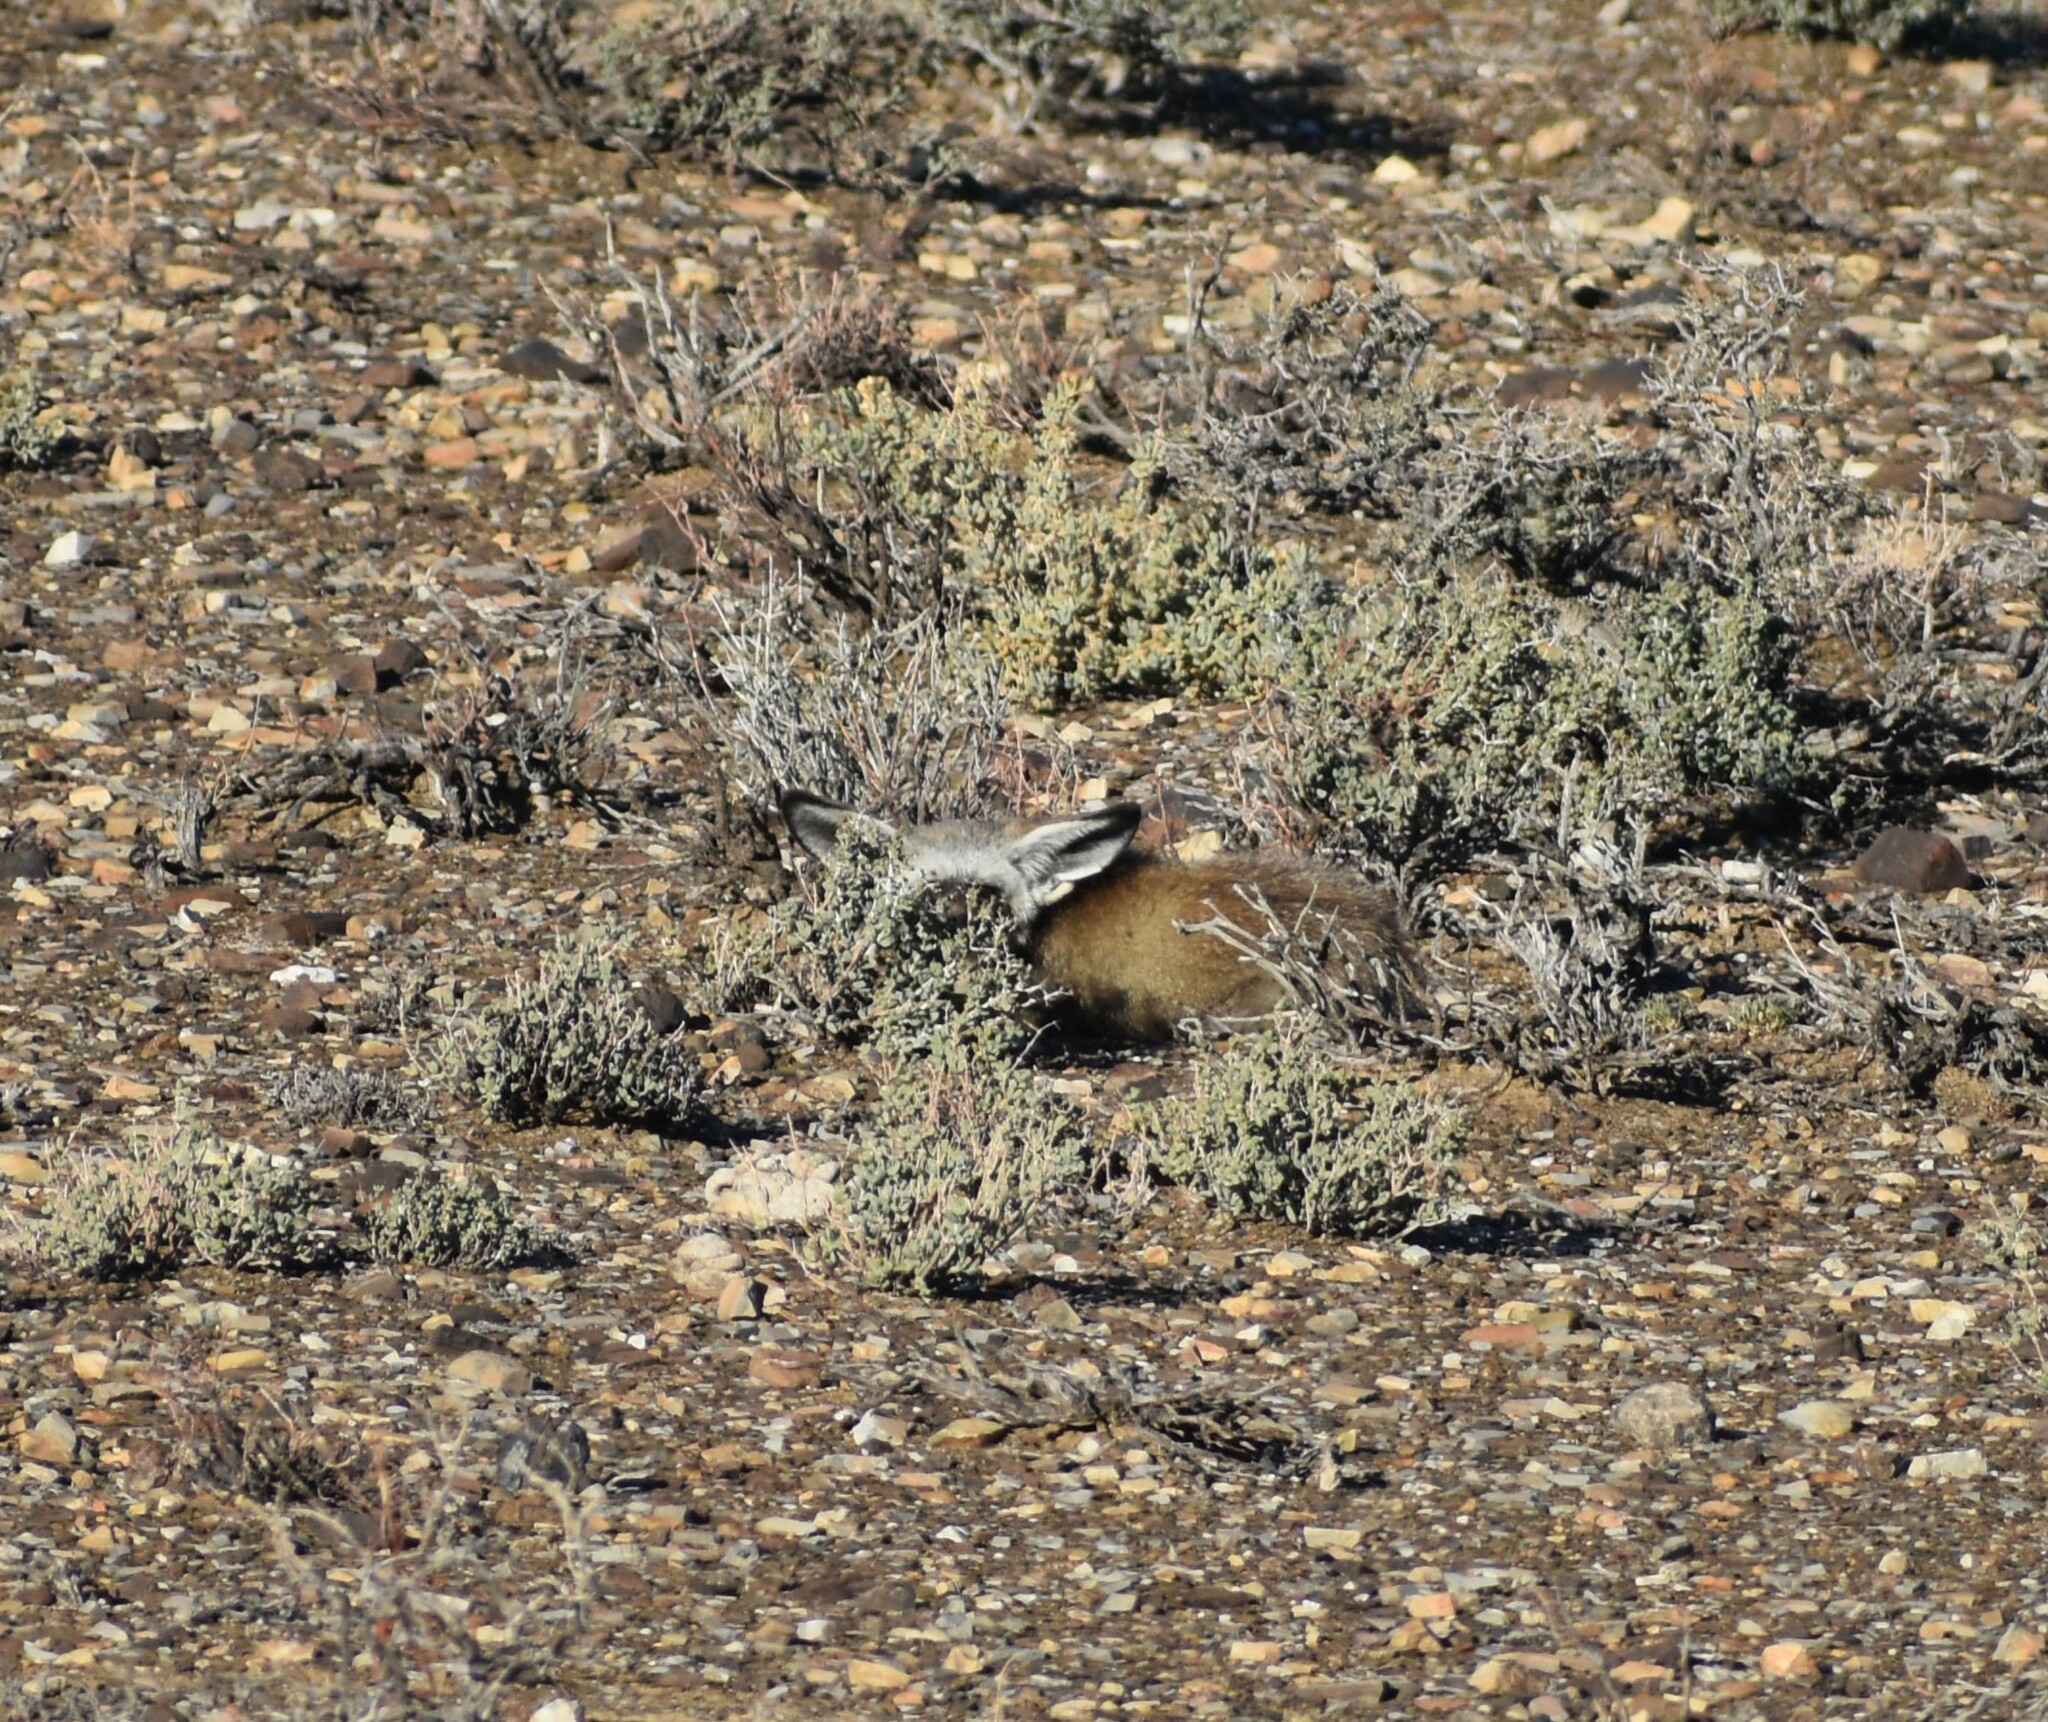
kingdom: Animalia
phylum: Chordata
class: Mammalia
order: Carnivora
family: Canidae
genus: Otocyon
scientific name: Otocyon megalotis
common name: Bat-eared fox
